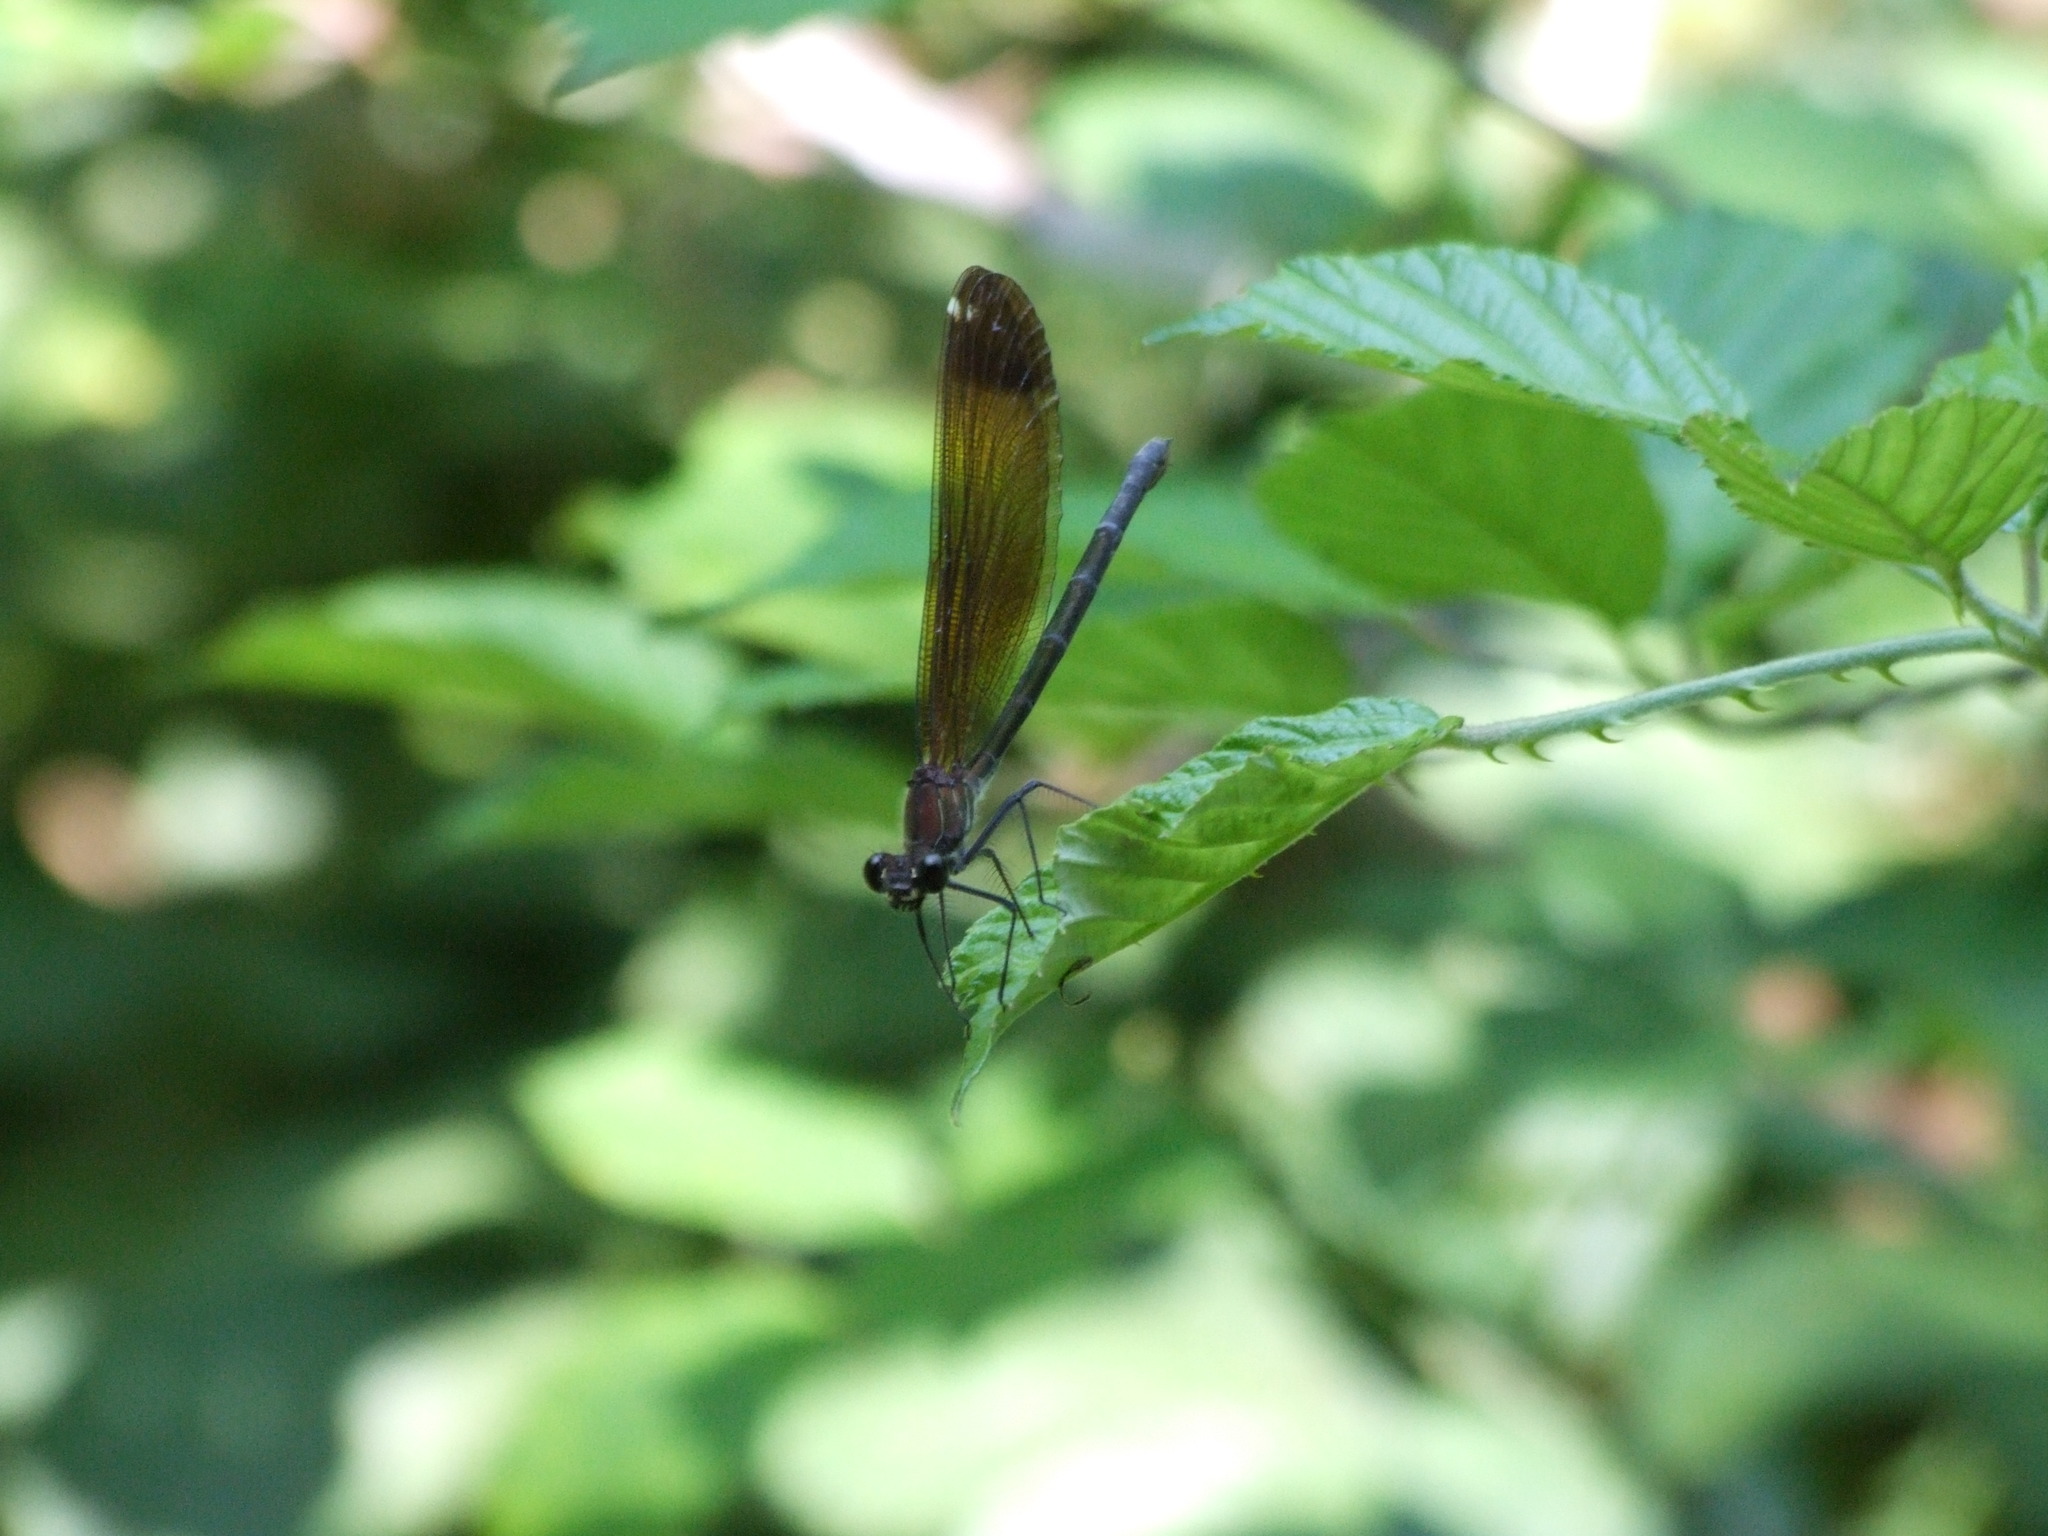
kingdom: Animalia
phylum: Arthropoda
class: Insecta
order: Odonata
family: Calopterygidae
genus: Calopteryx
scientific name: Calopteryx haemorrhoidalis
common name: Copper demoiselle
